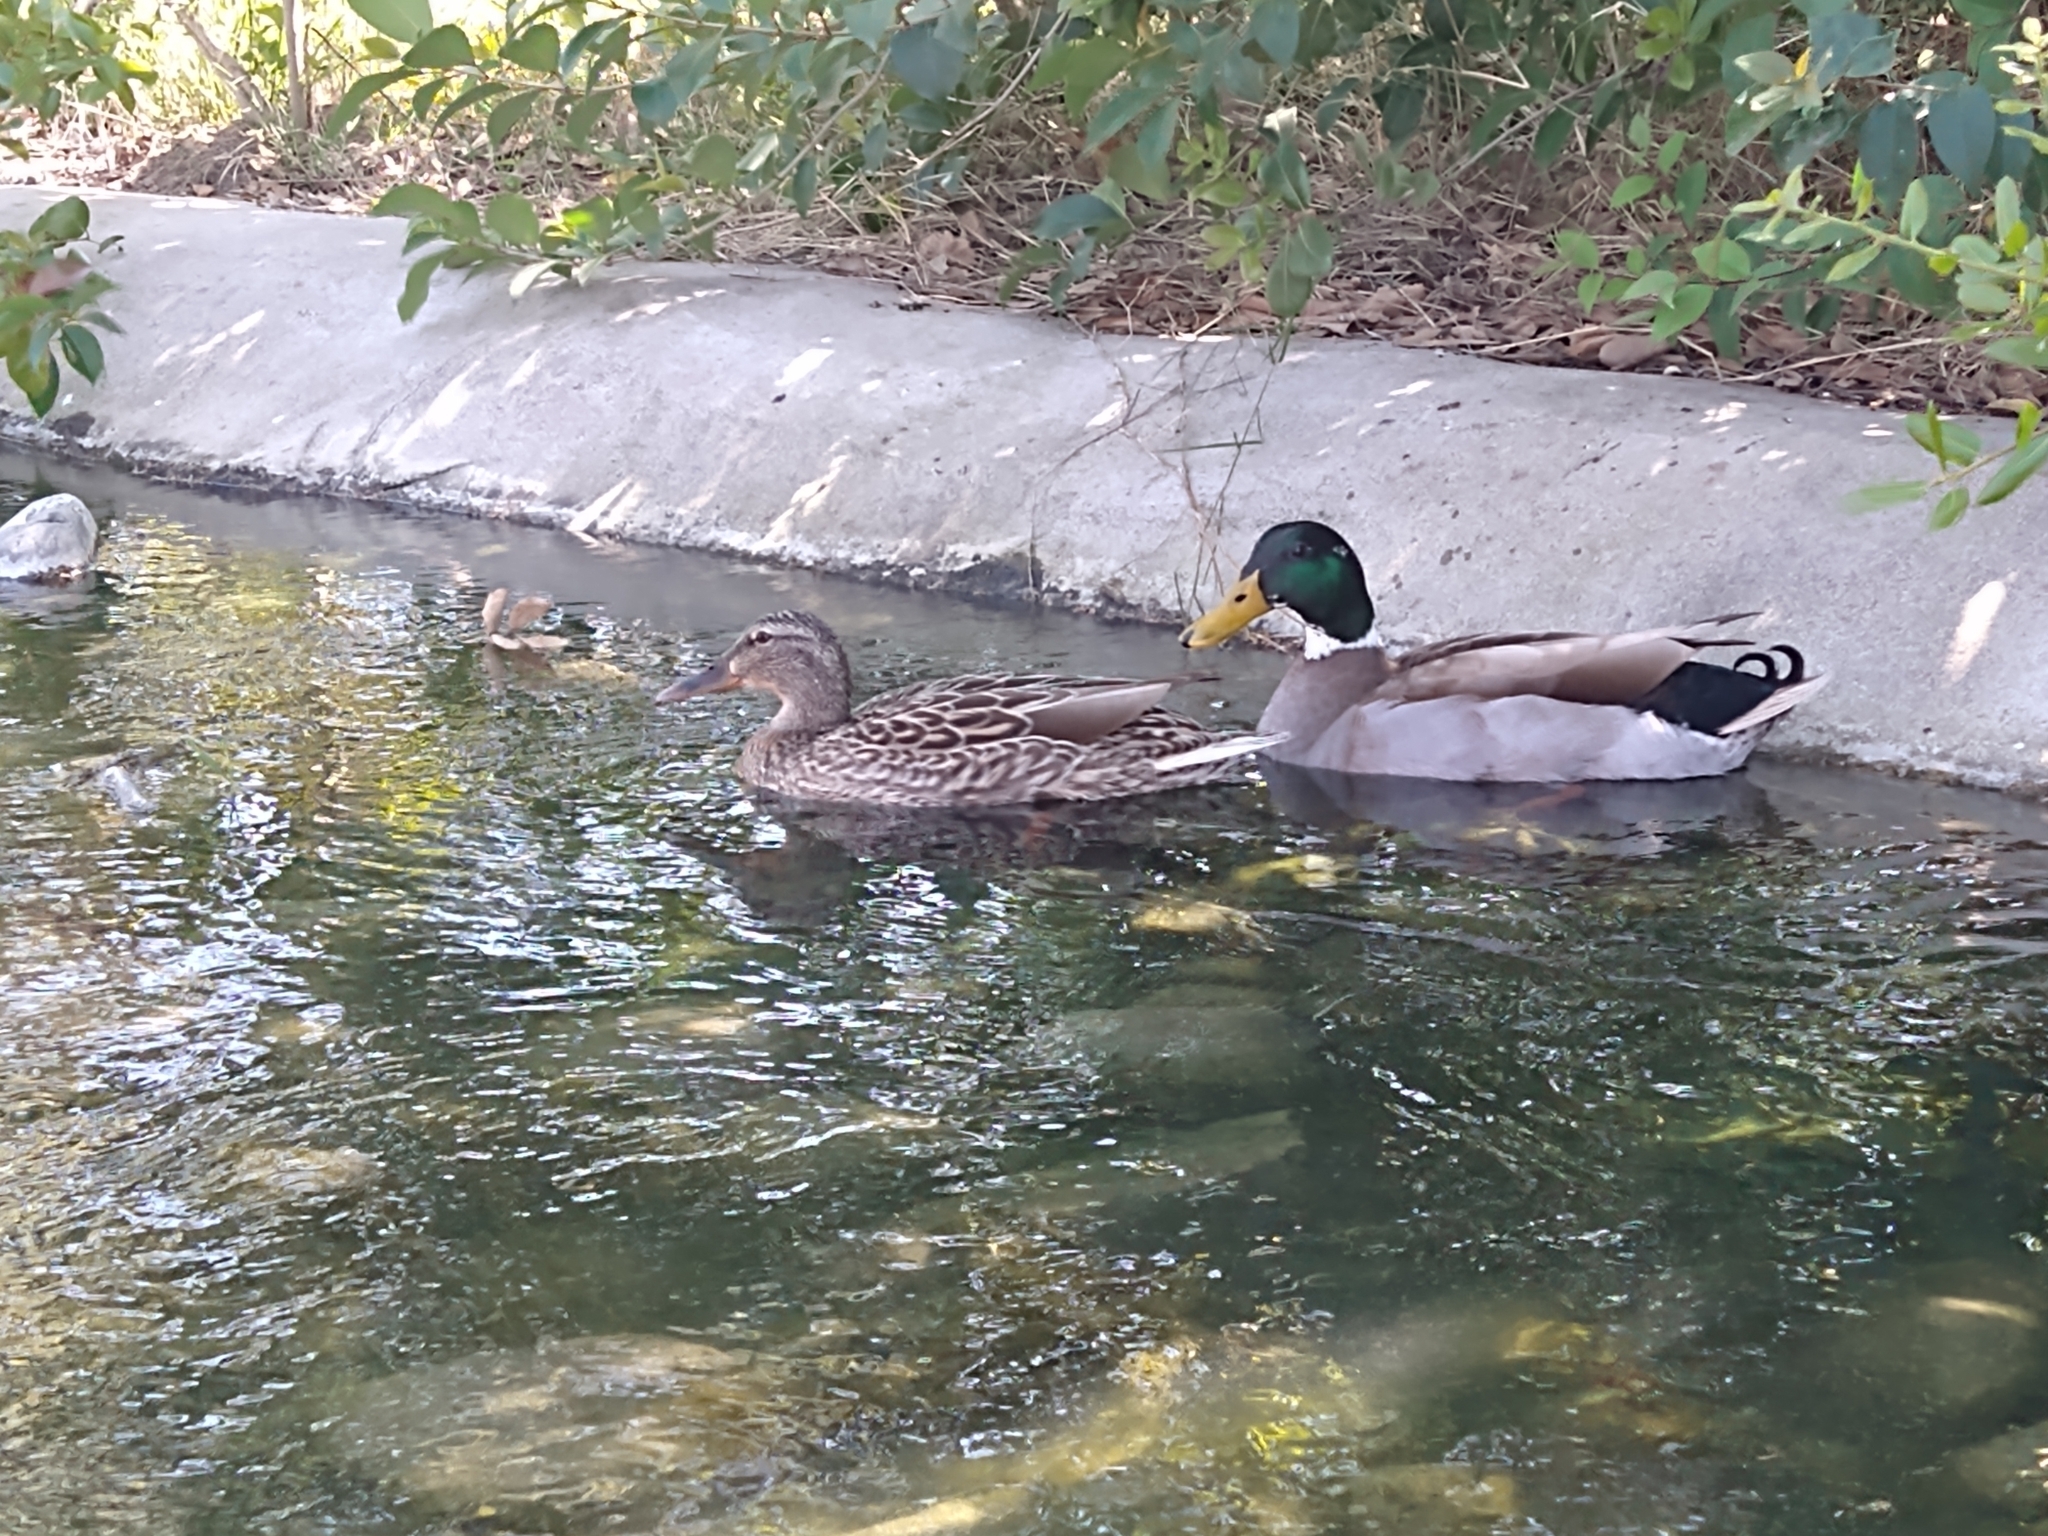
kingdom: Animalia
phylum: Chordata
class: Aves
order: Anseriformes
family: Anatidae
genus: Anas
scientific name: Anas platyrhynchos
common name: Mallard
